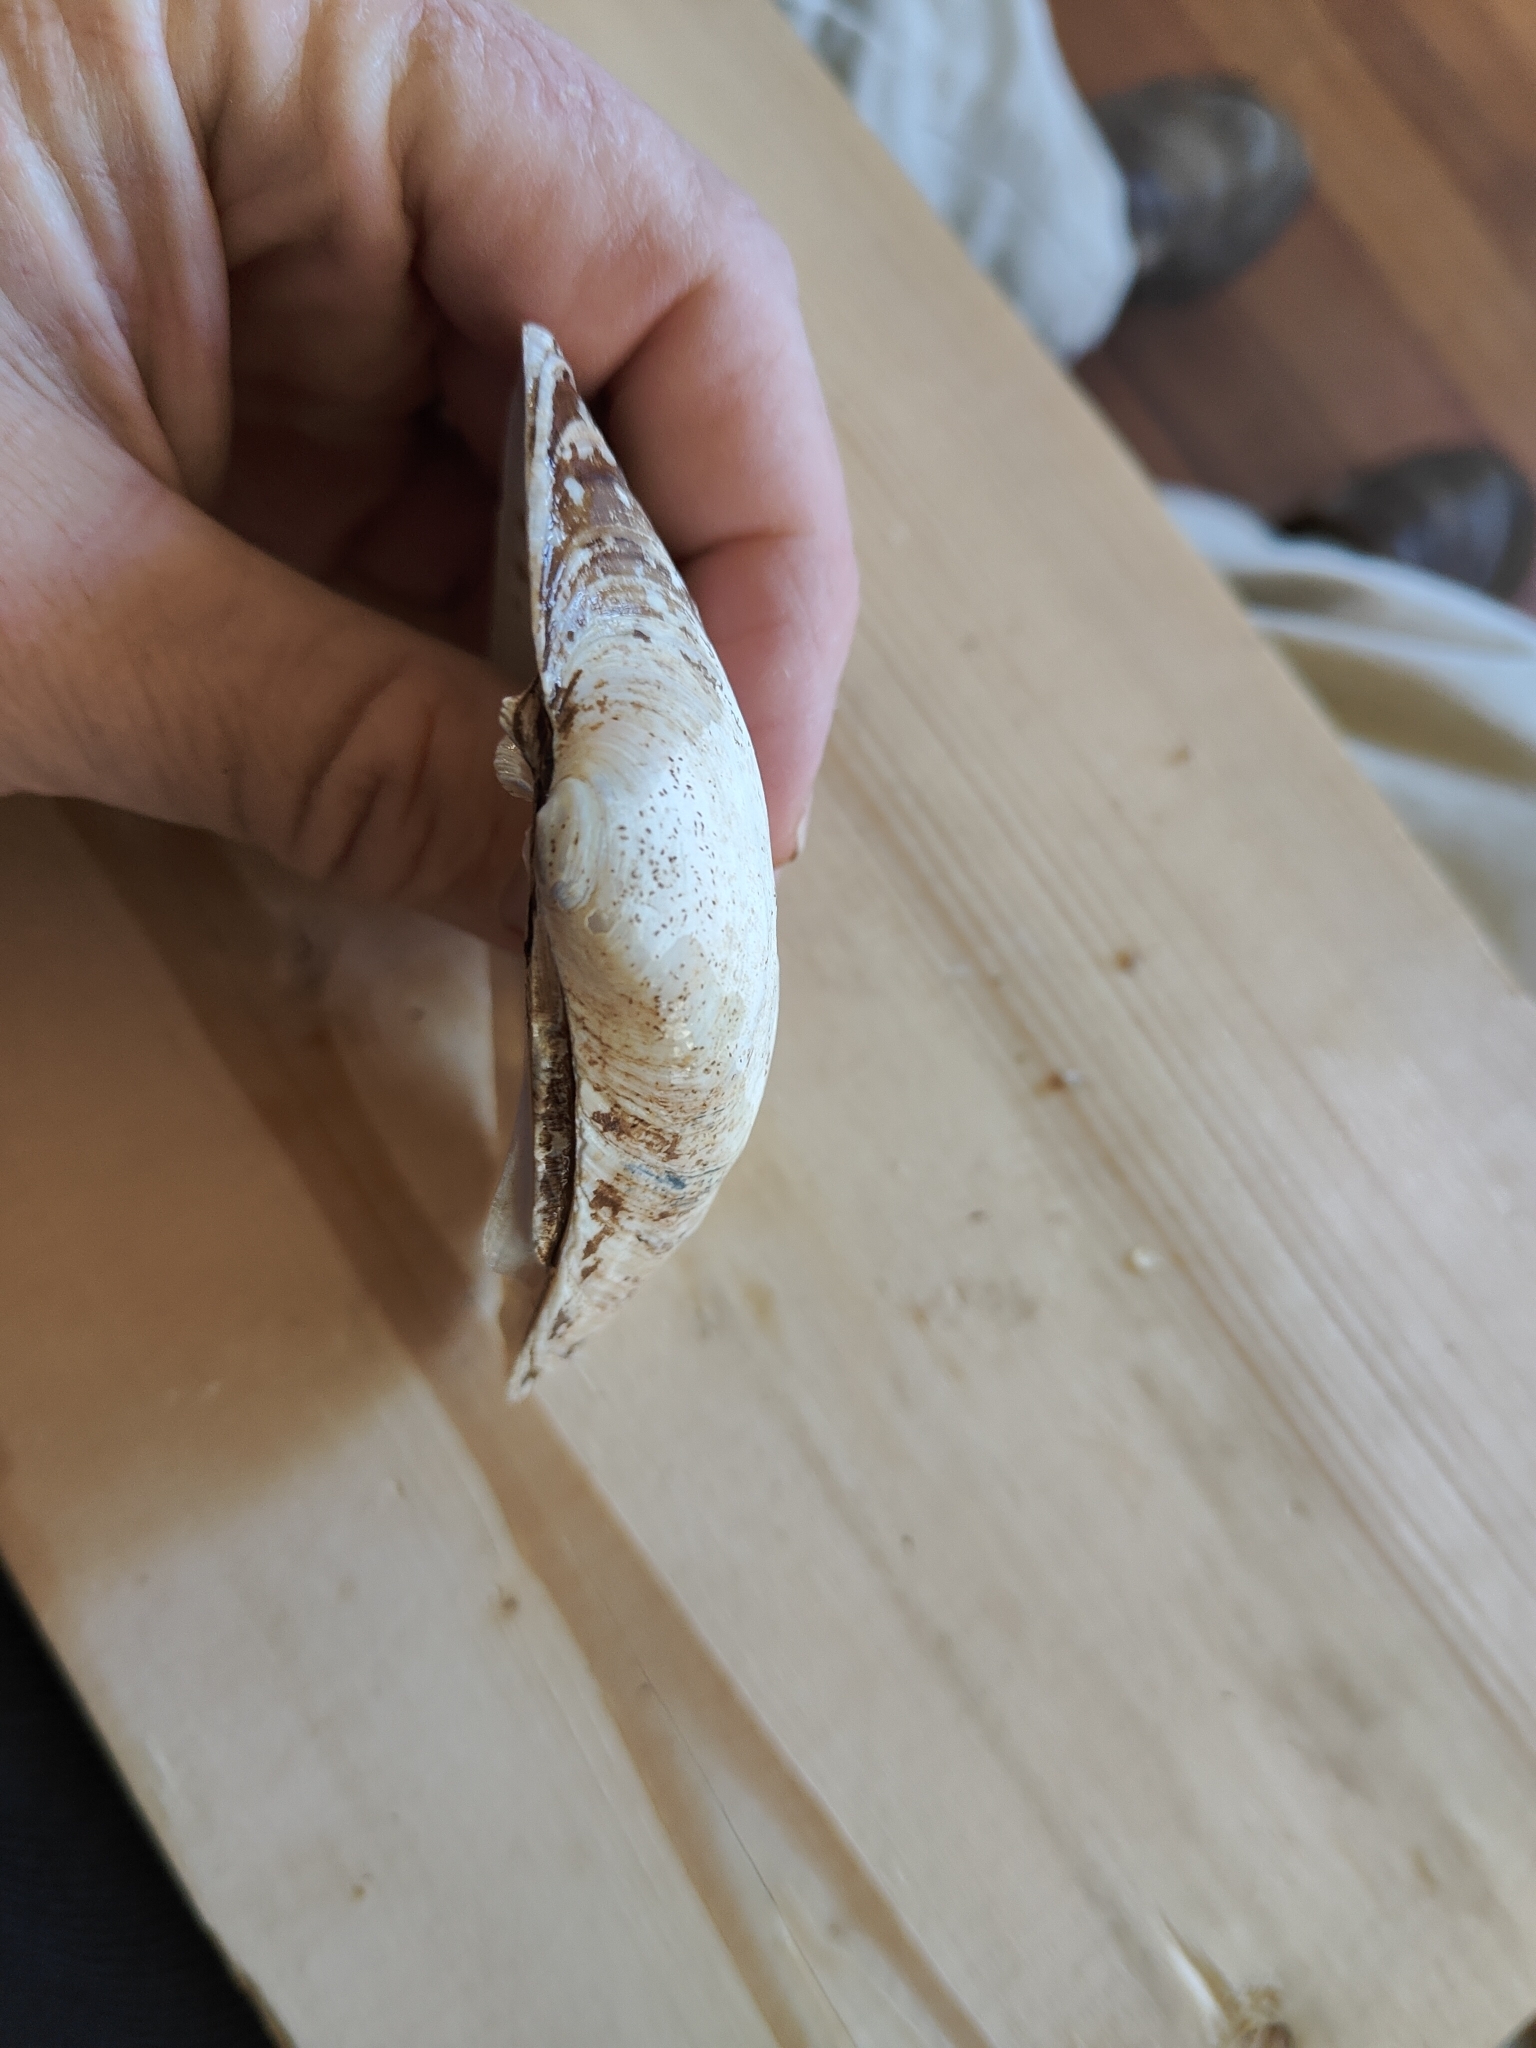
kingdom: Animalia
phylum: Mollusca
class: Bivalvia
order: Unionida
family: Unionidae
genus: Lampsilis
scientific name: Lampsilis cardium
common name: Plain pocketbook
